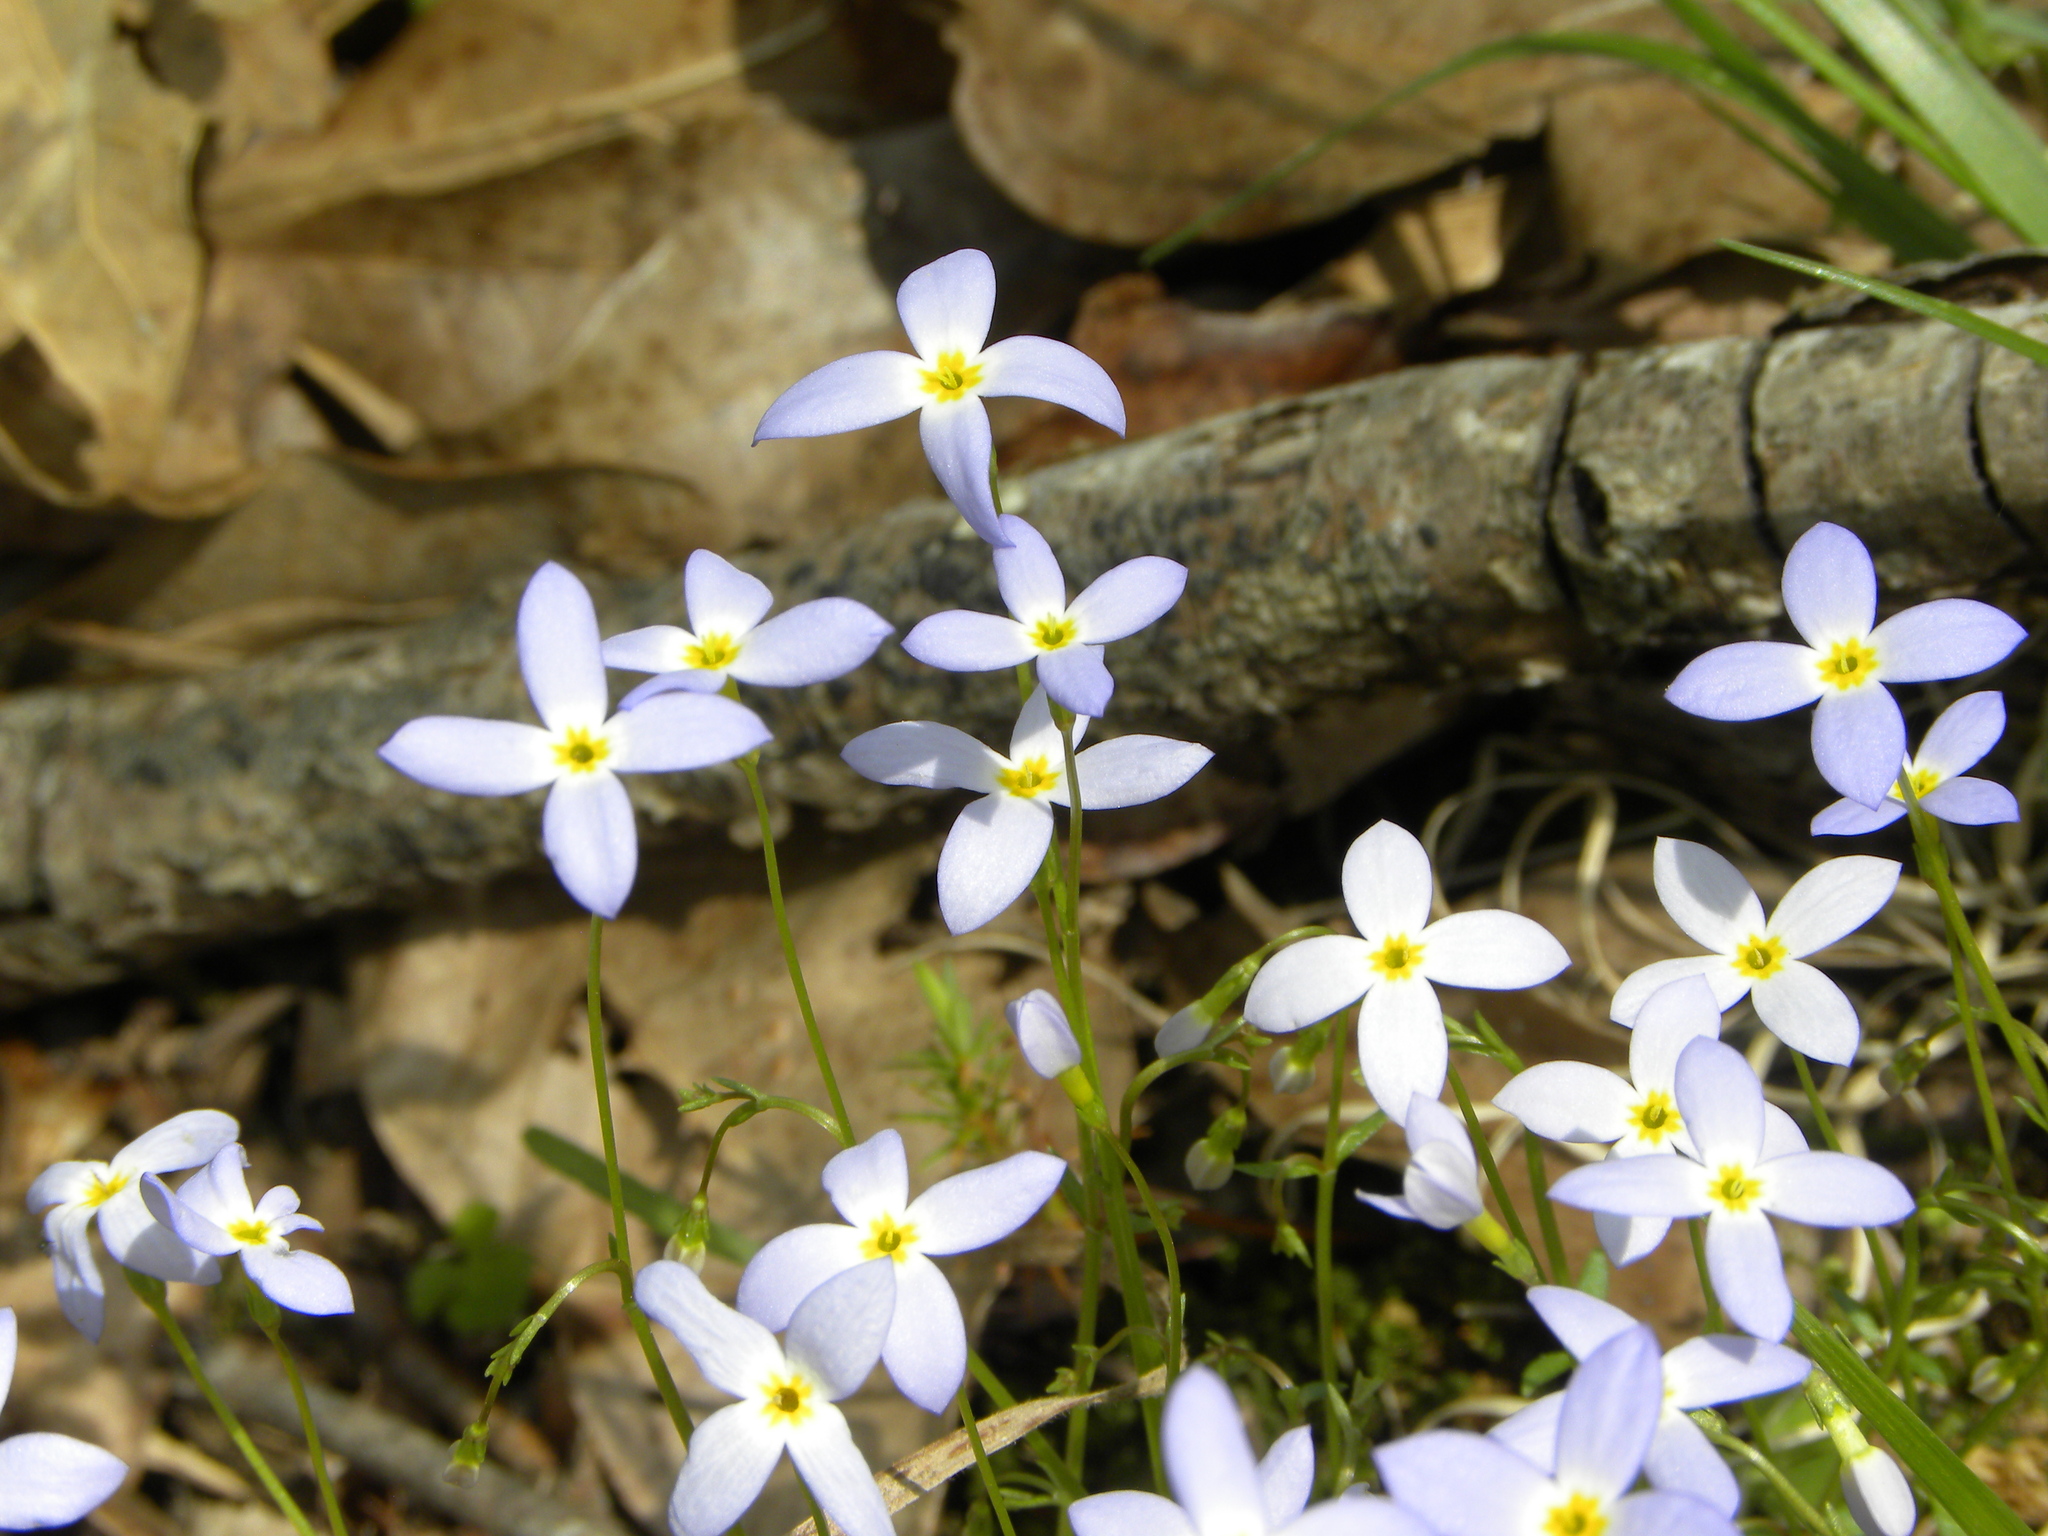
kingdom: Plantae
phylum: Tracheophyta
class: Magnoliopsida
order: Gentianales
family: Rubiaceae
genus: Houstonia
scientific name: Houstonia caerulea
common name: Bluets
